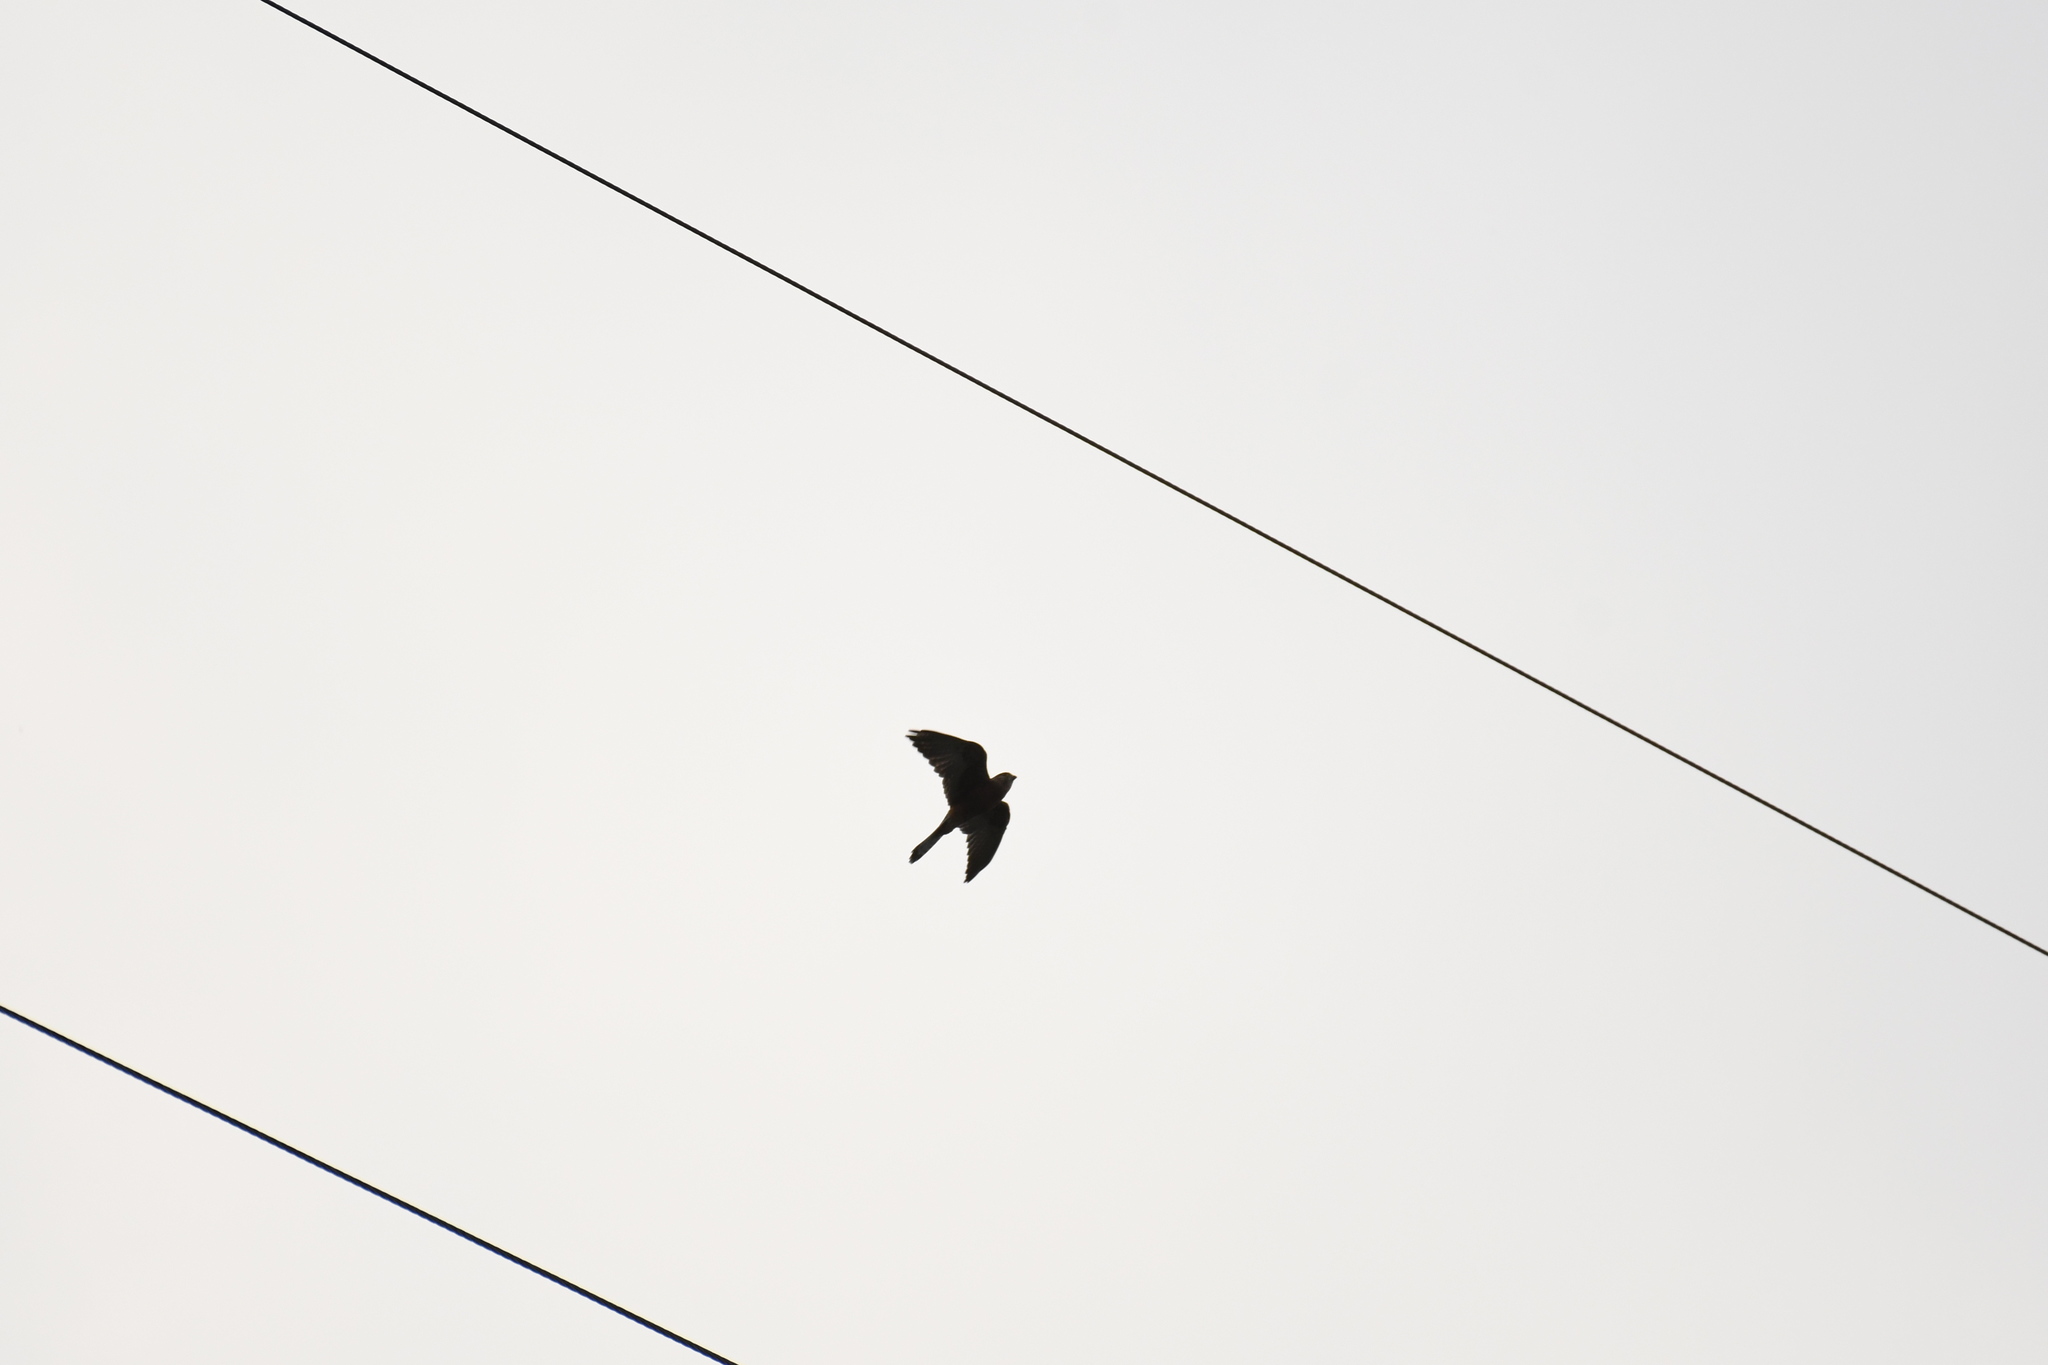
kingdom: Animalia
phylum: Chordata
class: Aves
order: Falconiformes
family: Falconidae
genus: Falco
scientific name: Falco newtoni
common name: Malagasy kestrel
